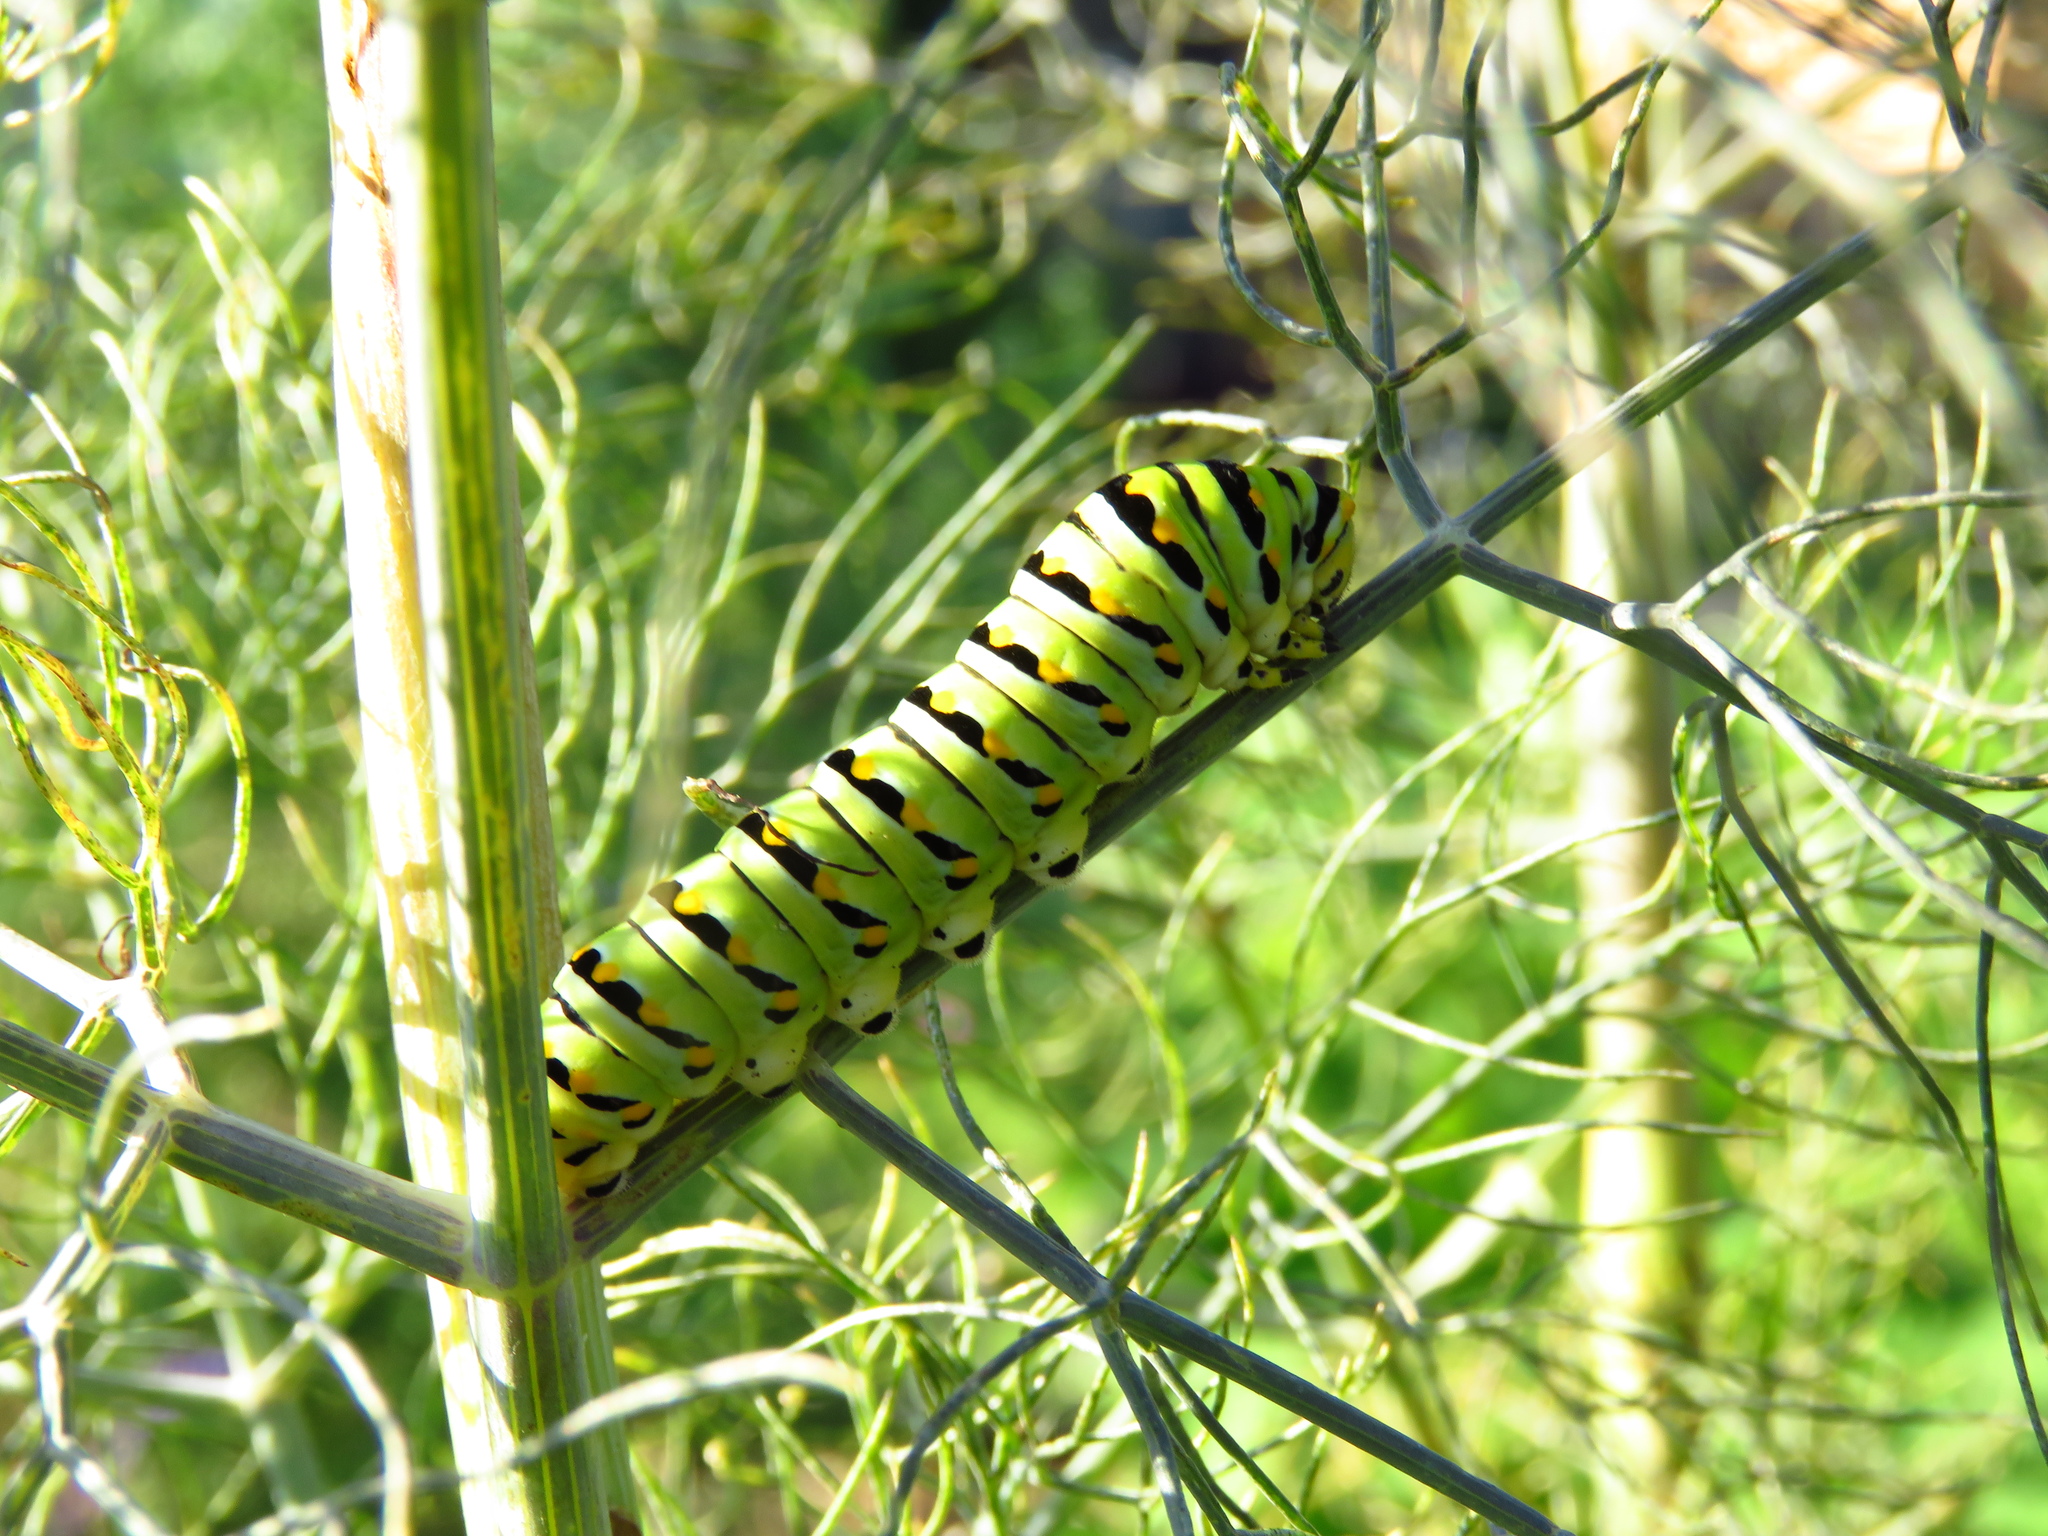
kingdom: Animalia
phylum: Arthropoda
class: Insecta
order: Lepidoptera
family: Papilionidae
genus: Papilio
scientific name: Papilio polyxenes
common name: Black swallowtail
